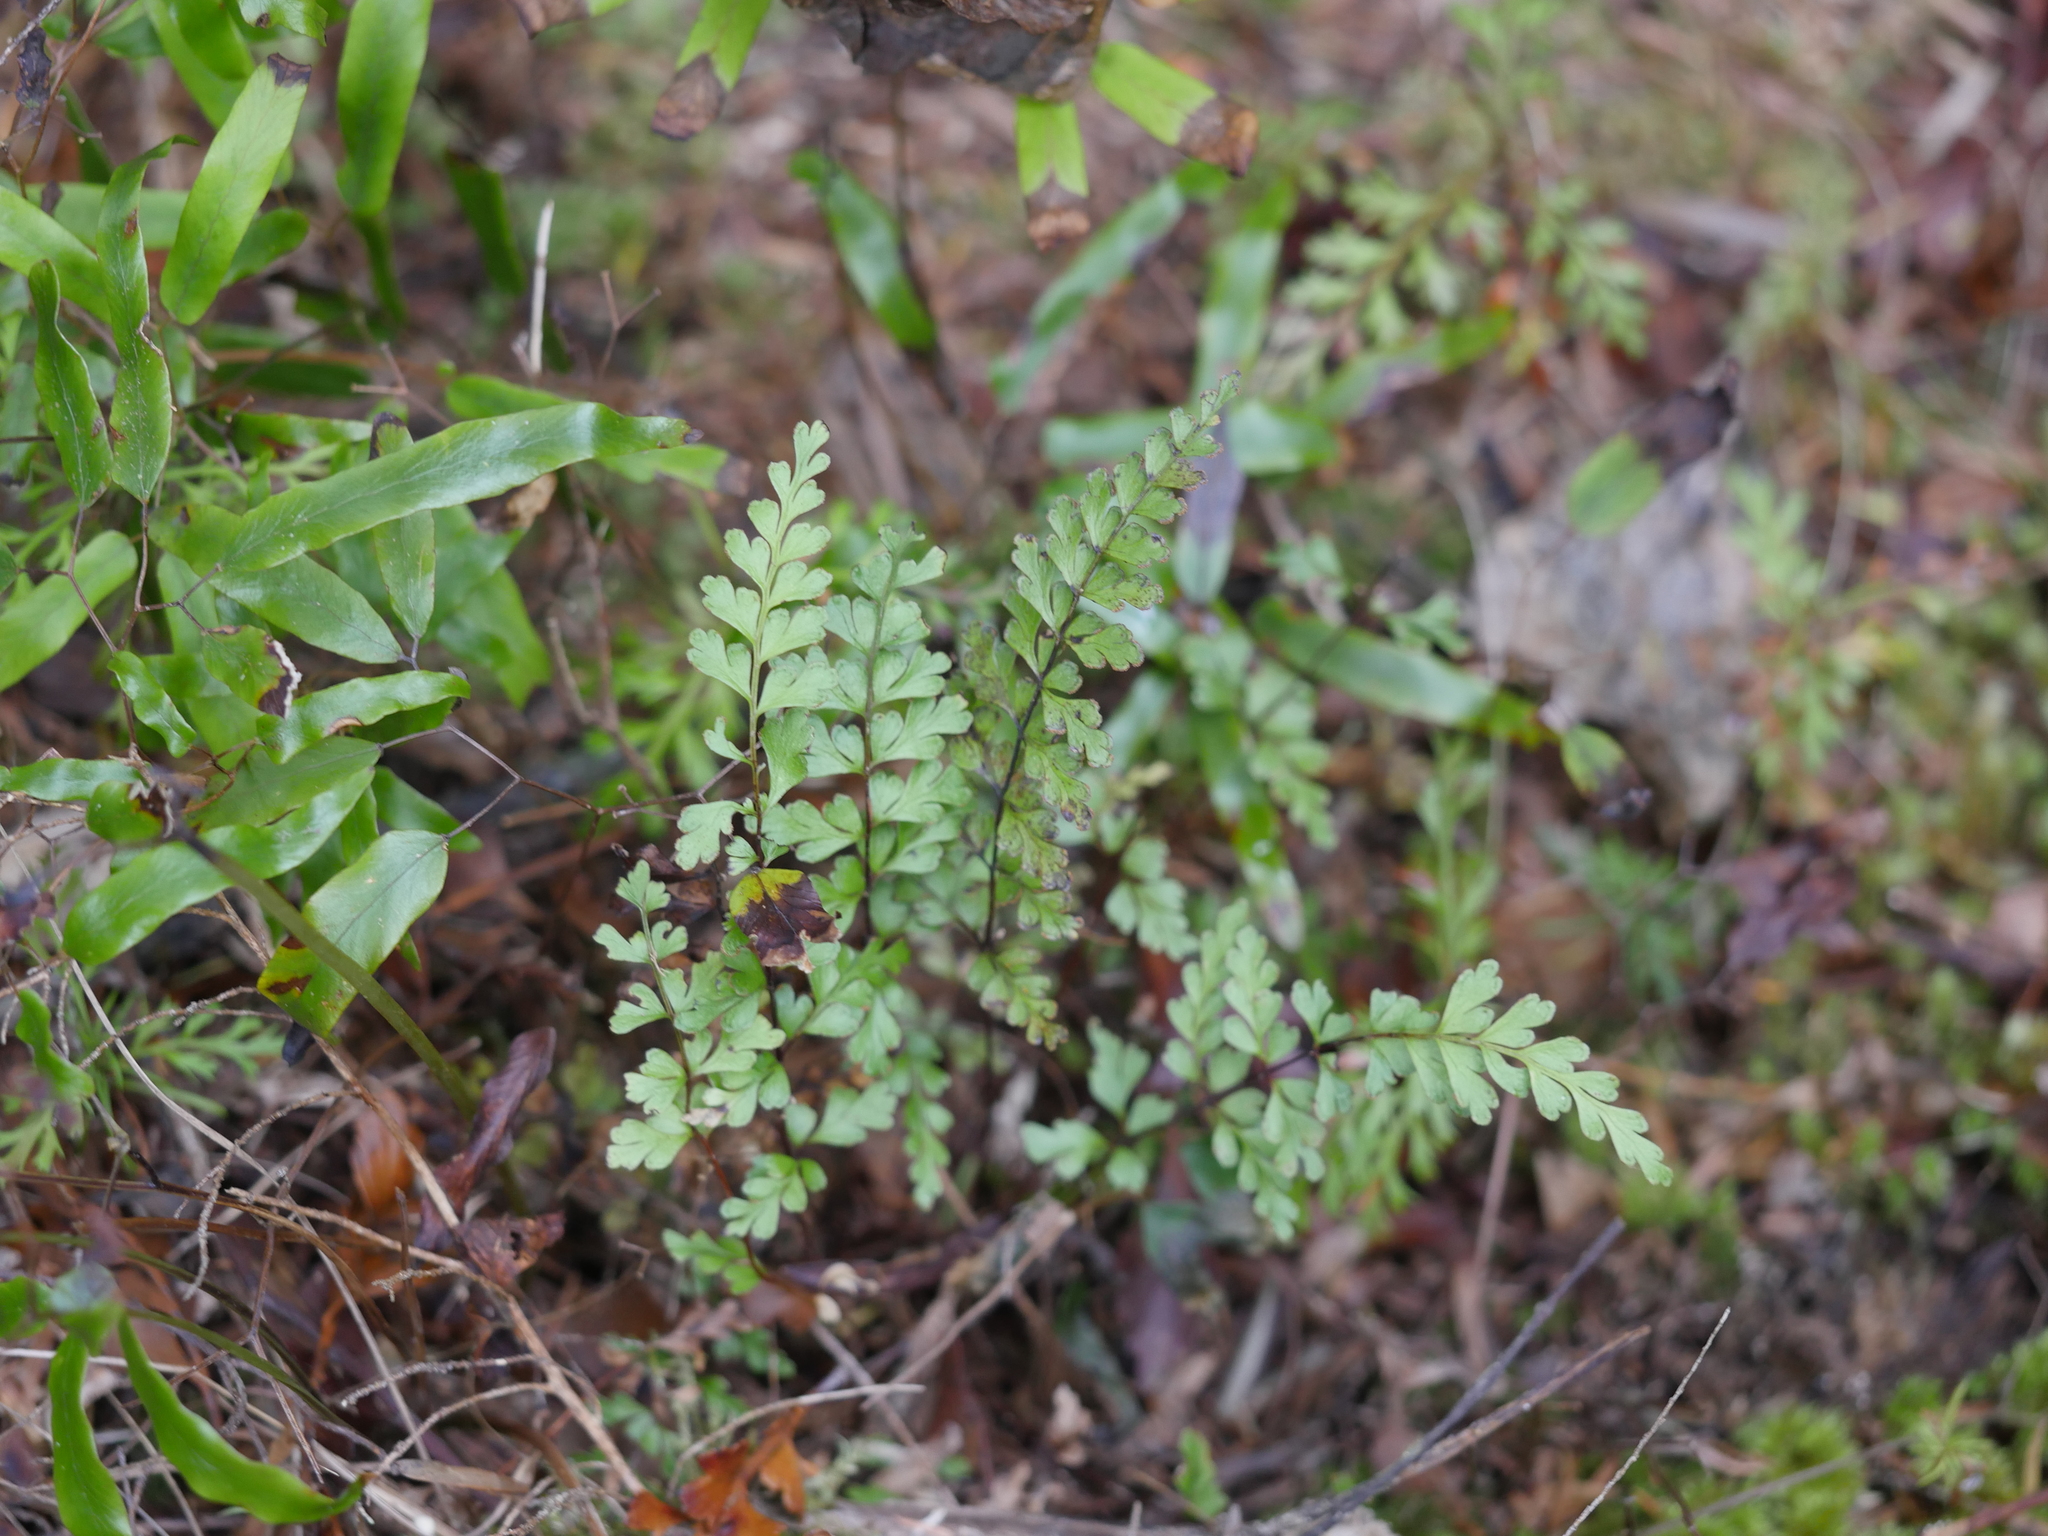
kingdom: Plantae
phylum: Tracheophyta
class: Polypodiopsida
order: Polypodiales
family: Lindsaeaceae
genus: Lindsaea
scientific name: Lindsaea trichomanoides
